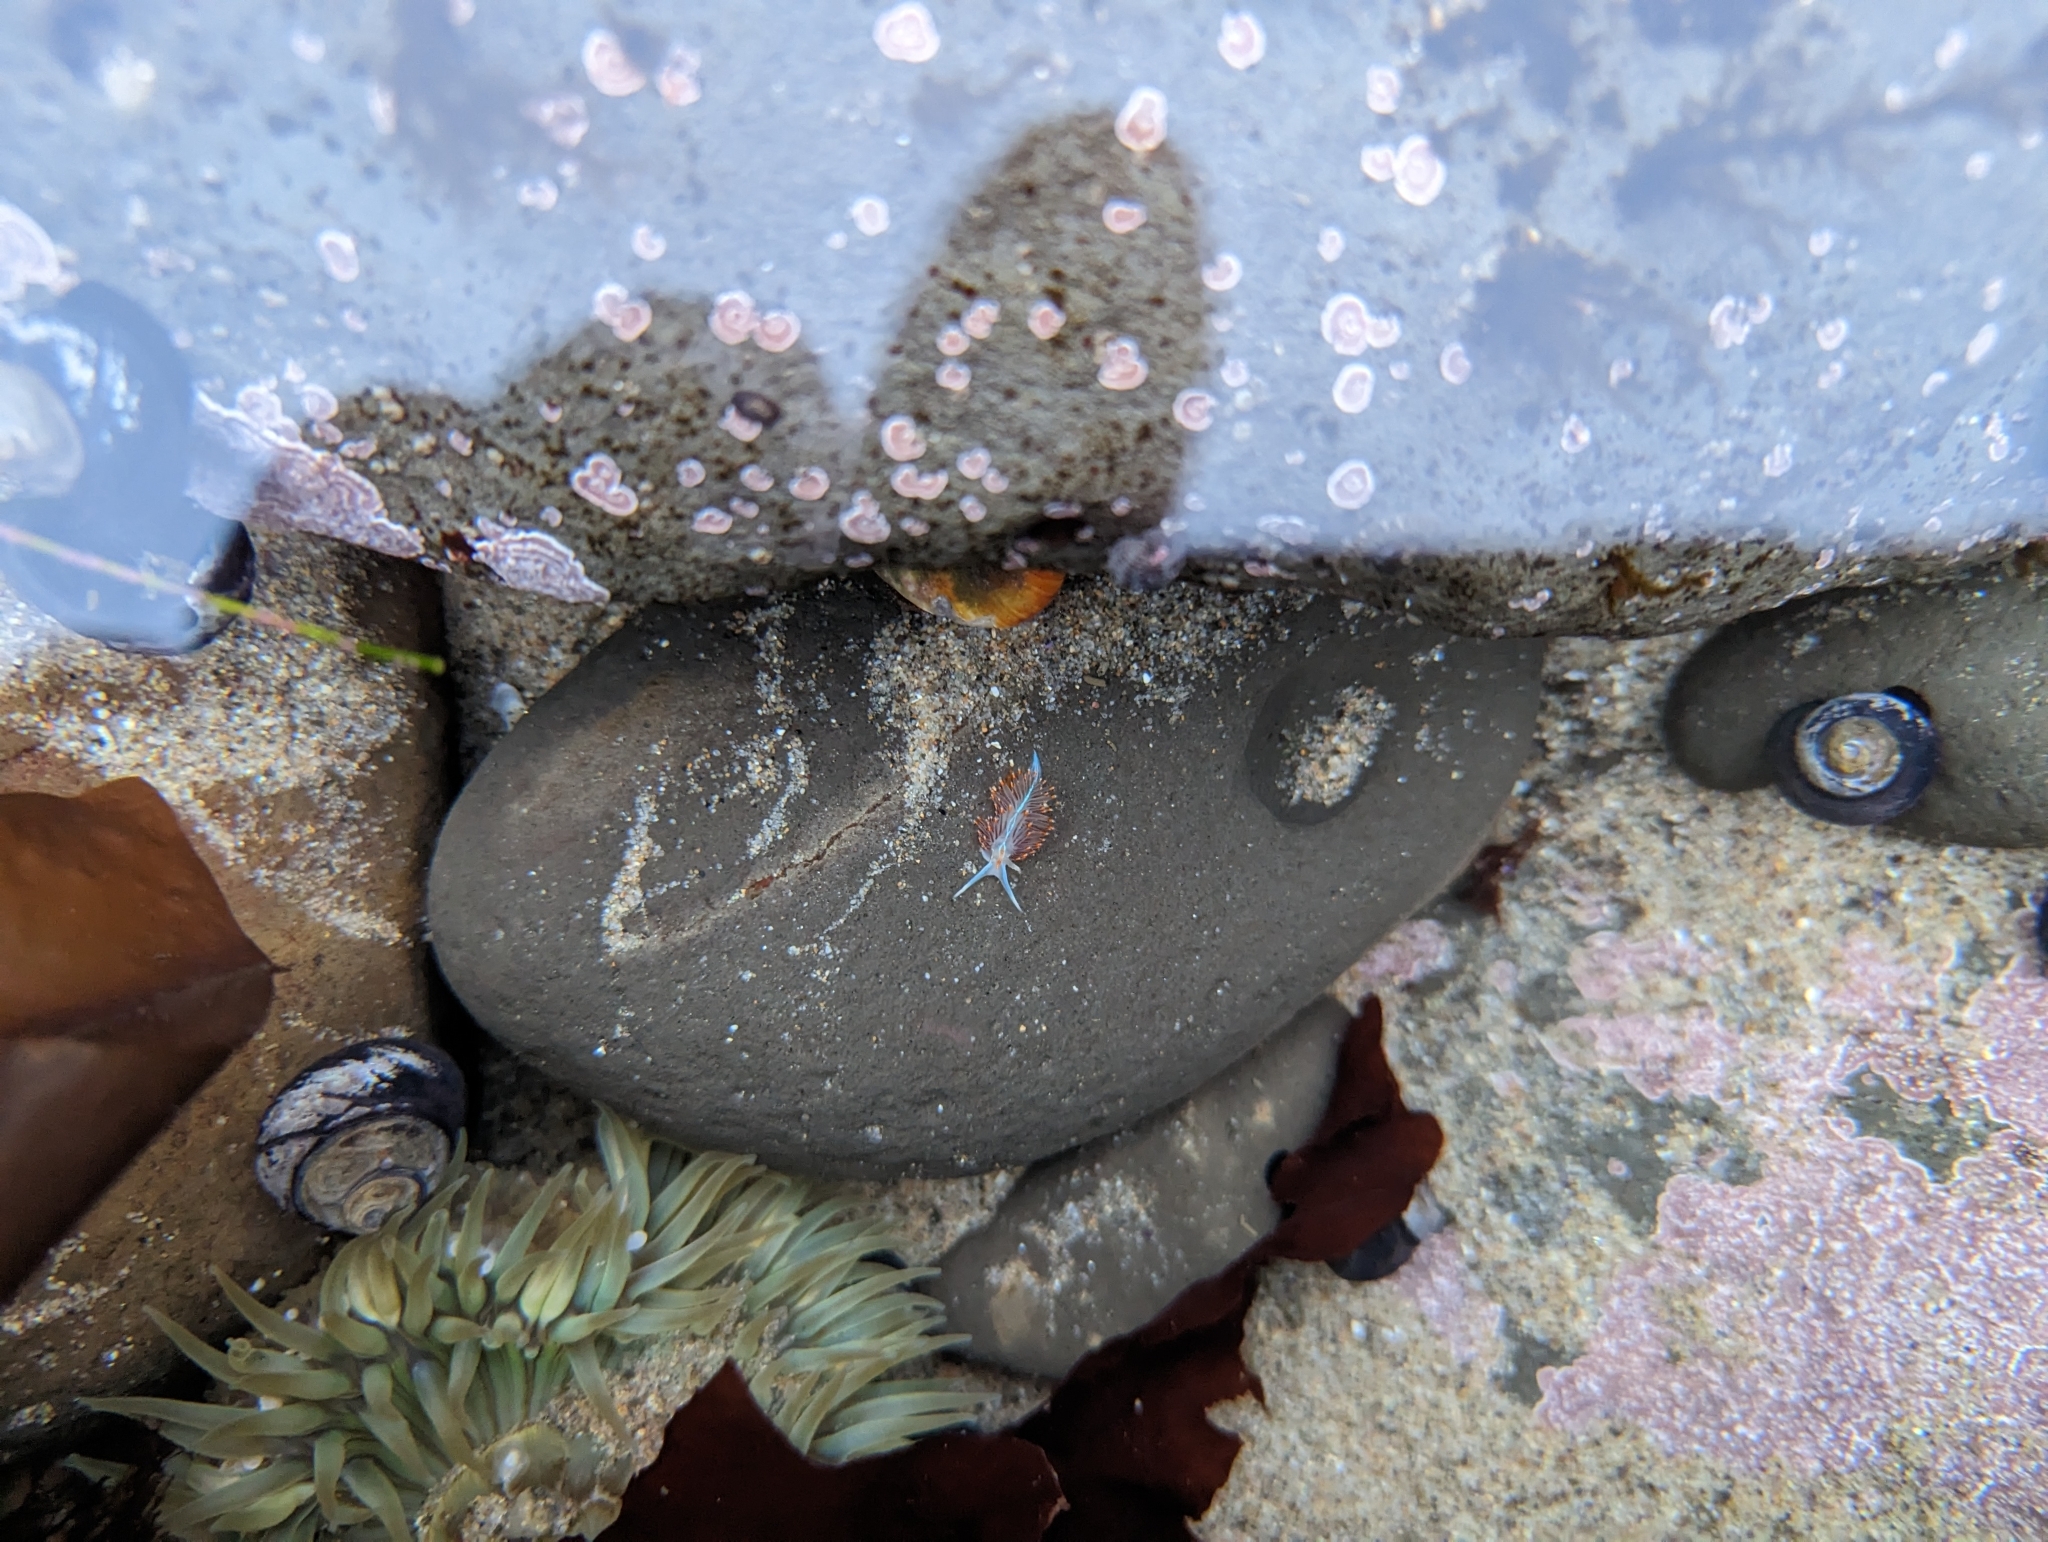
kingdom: Animalia
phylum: Mollusca
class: Gastropoda
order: Nudibranchia
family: Myrrhinidae
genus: Hermissenda
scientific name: Hermissenda opalescens
